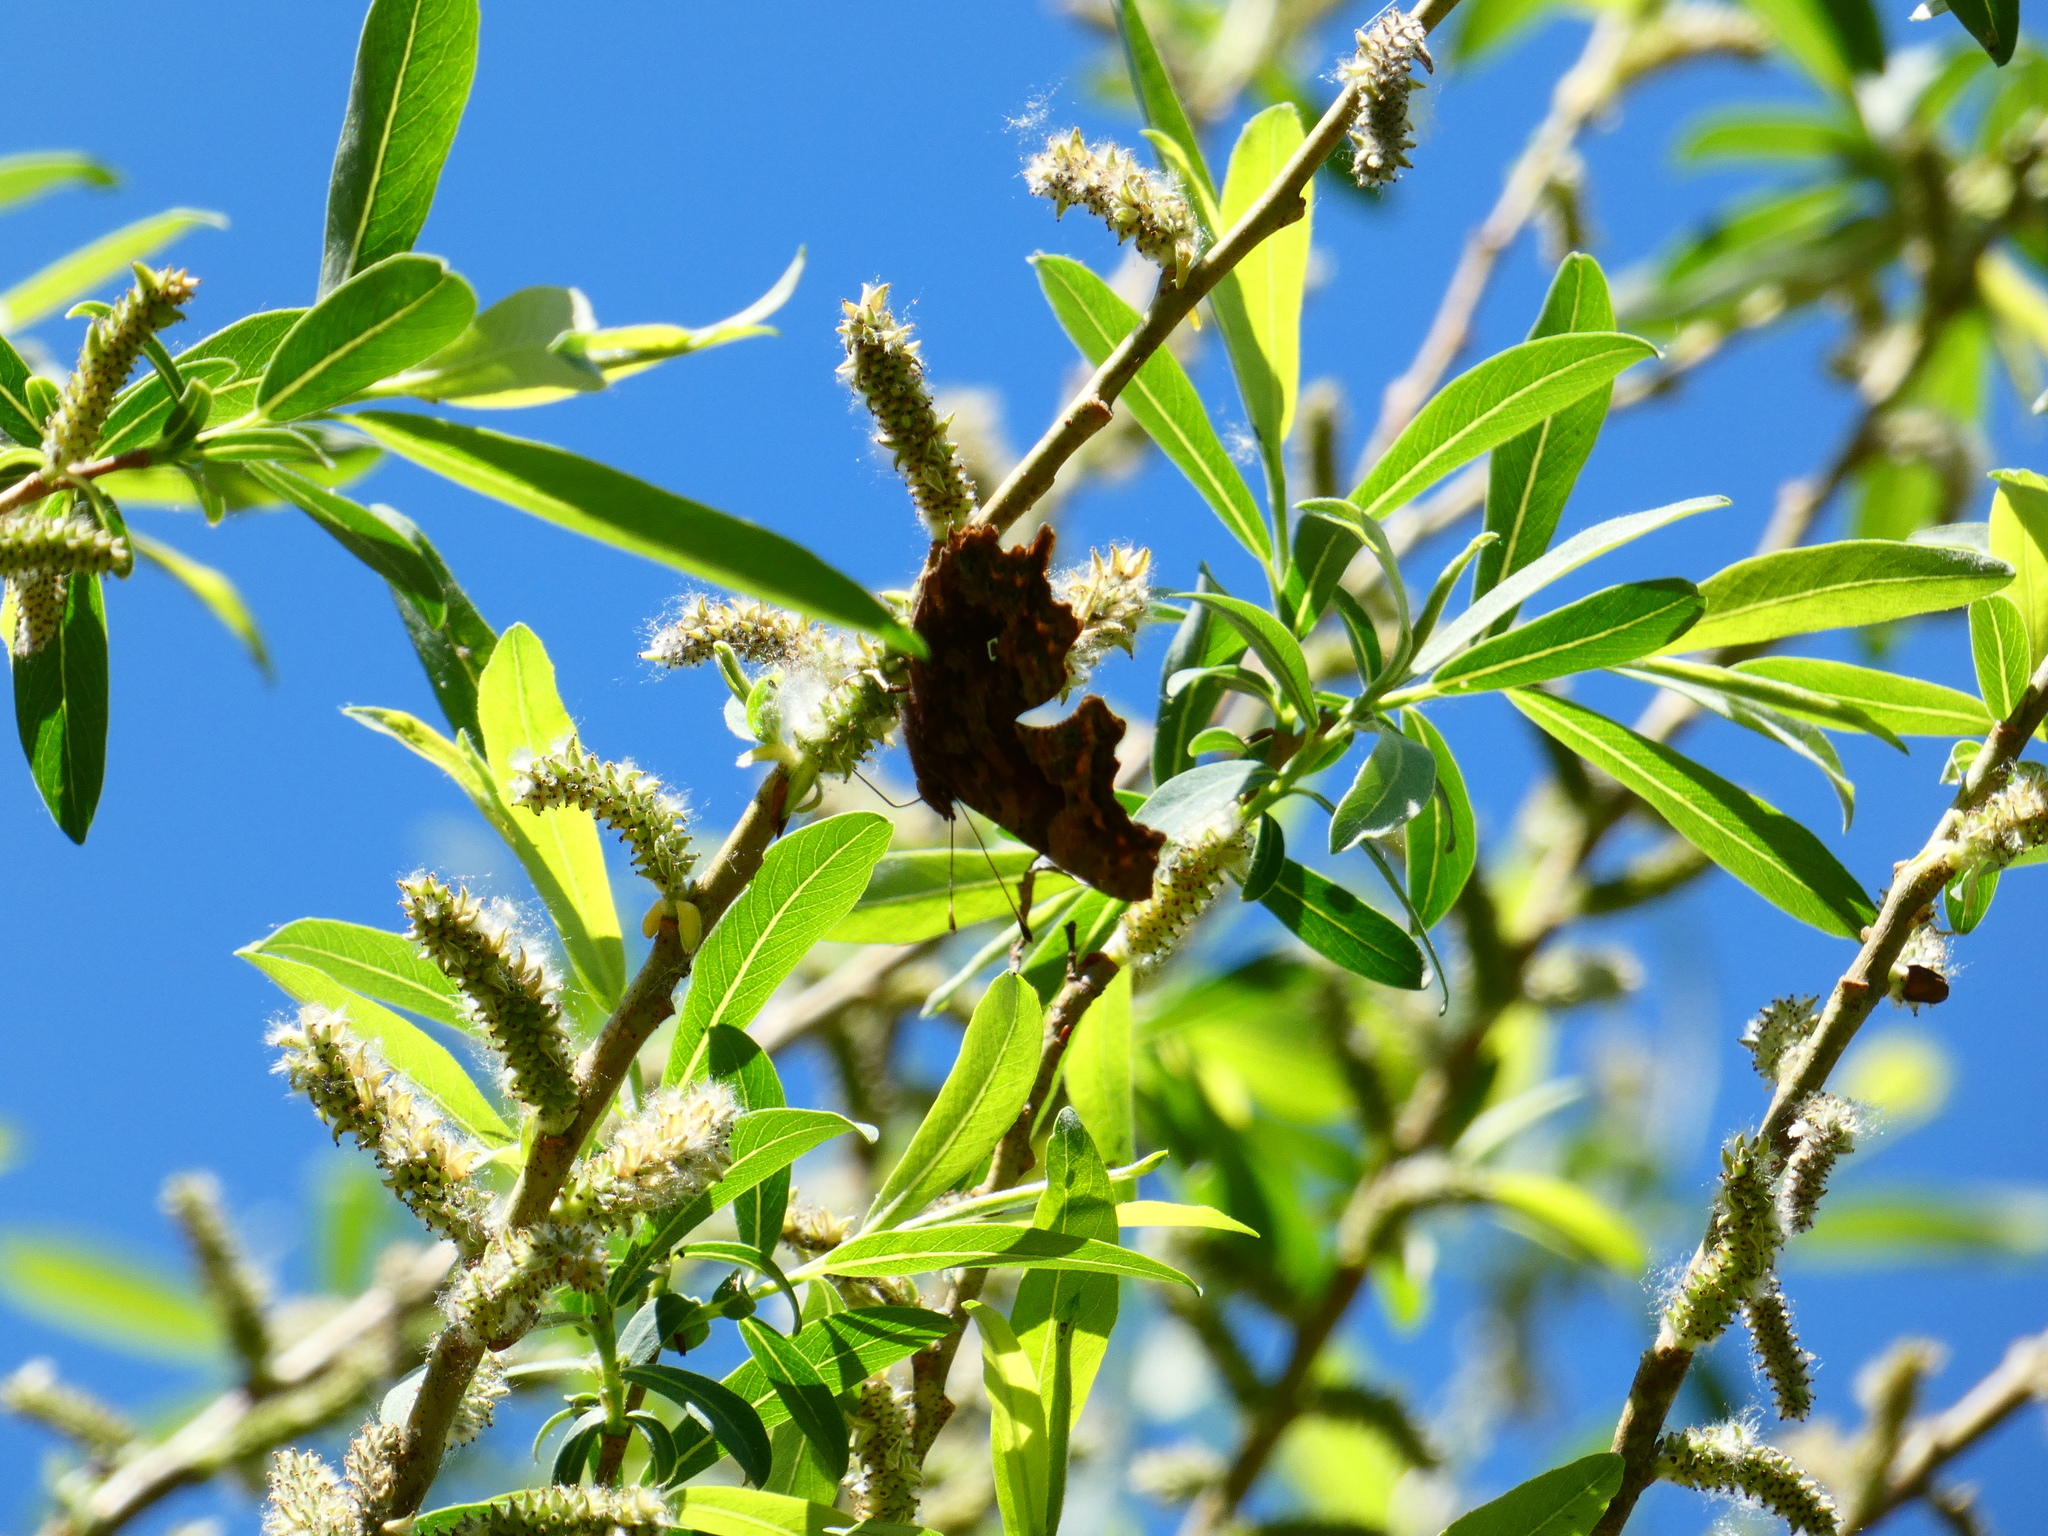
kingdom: Animalia
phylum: Arthropoda
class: Insecta
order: Lepidoptera
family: Nymphalidae
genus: Polygonia
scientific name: Polygonia c-album
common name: Comma
